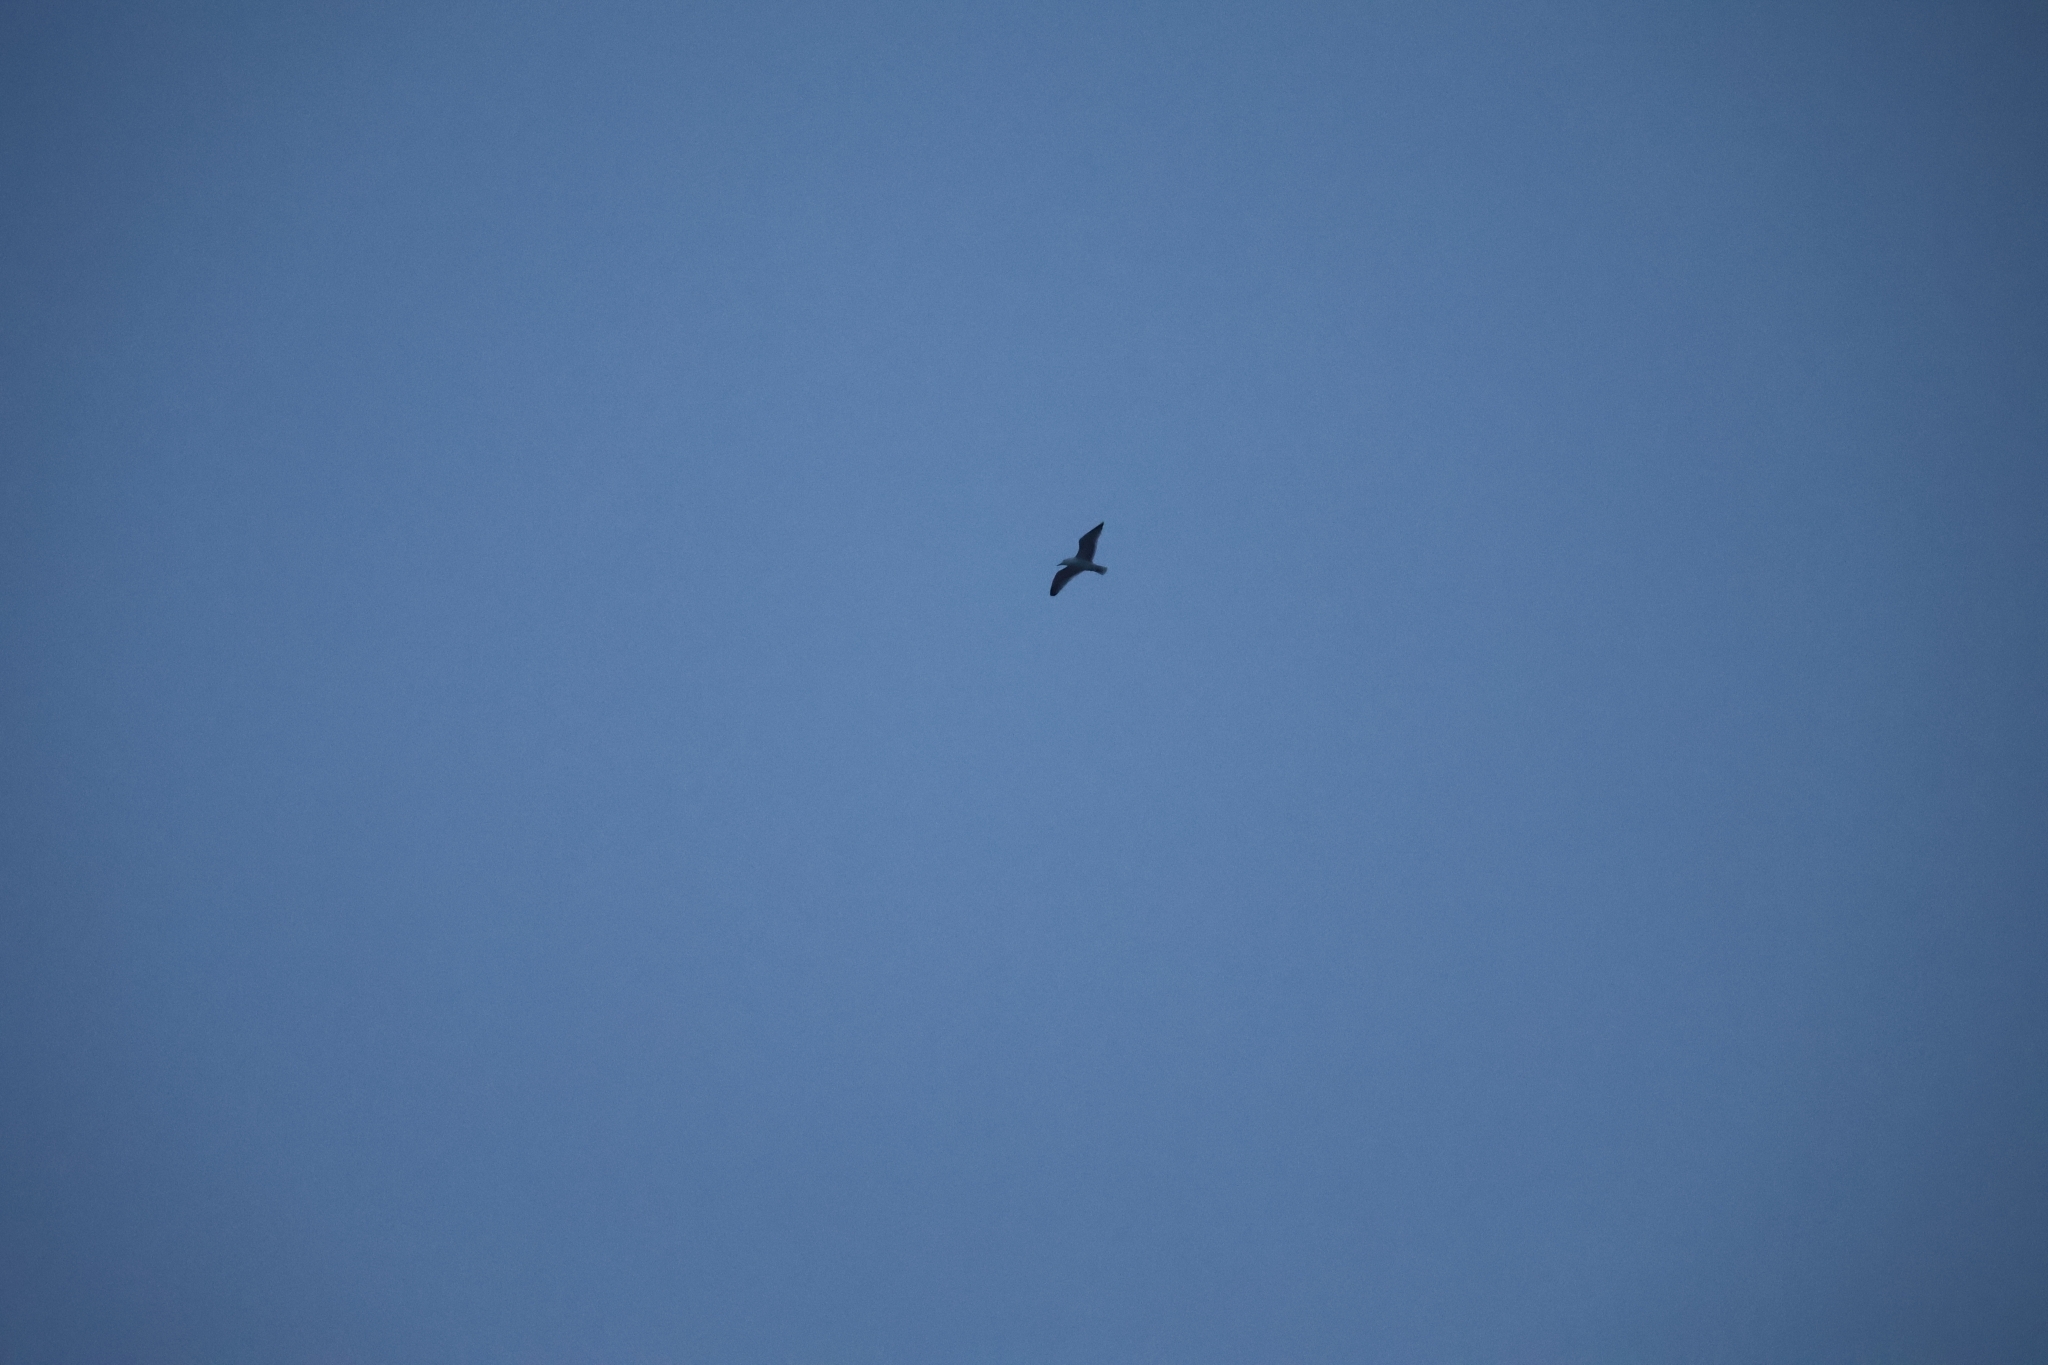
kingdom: Animalia
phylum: Chordata
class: Aves
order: Charadriiformes
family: Laridae
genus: Larus
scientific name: Larus argentatus
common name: Herring gull
